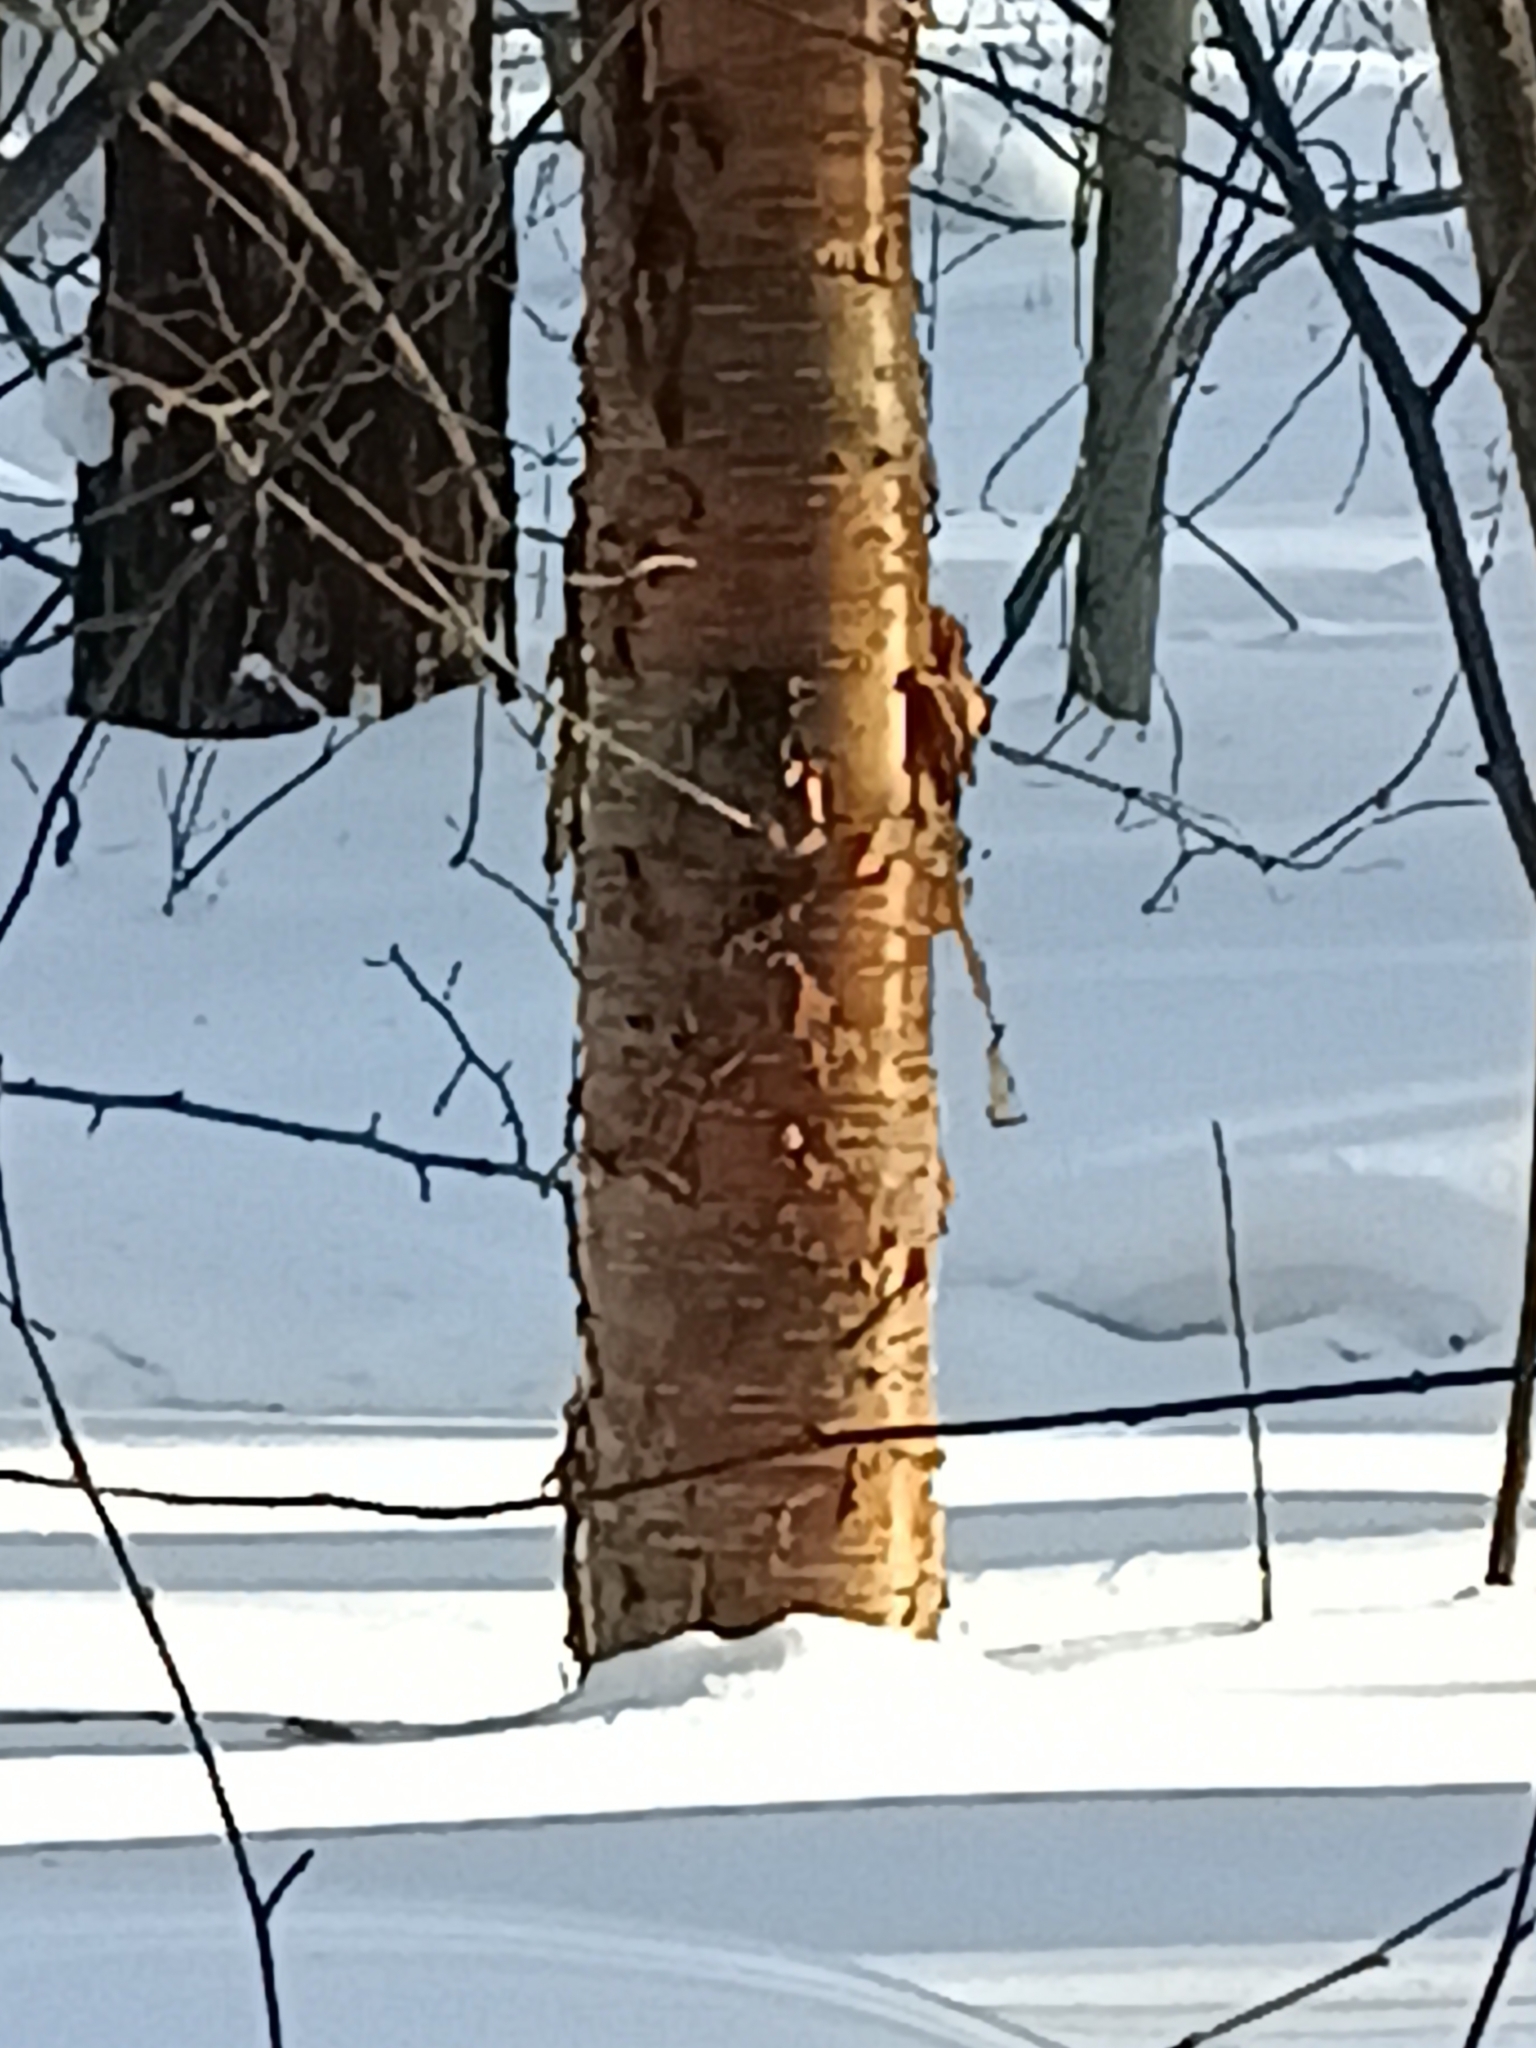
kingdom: Plantae
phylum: Tracheophyta
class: Magnoliopsida
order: Rosales
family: Rosaceae
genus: Prunus
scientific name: Prunus glandulifolia
